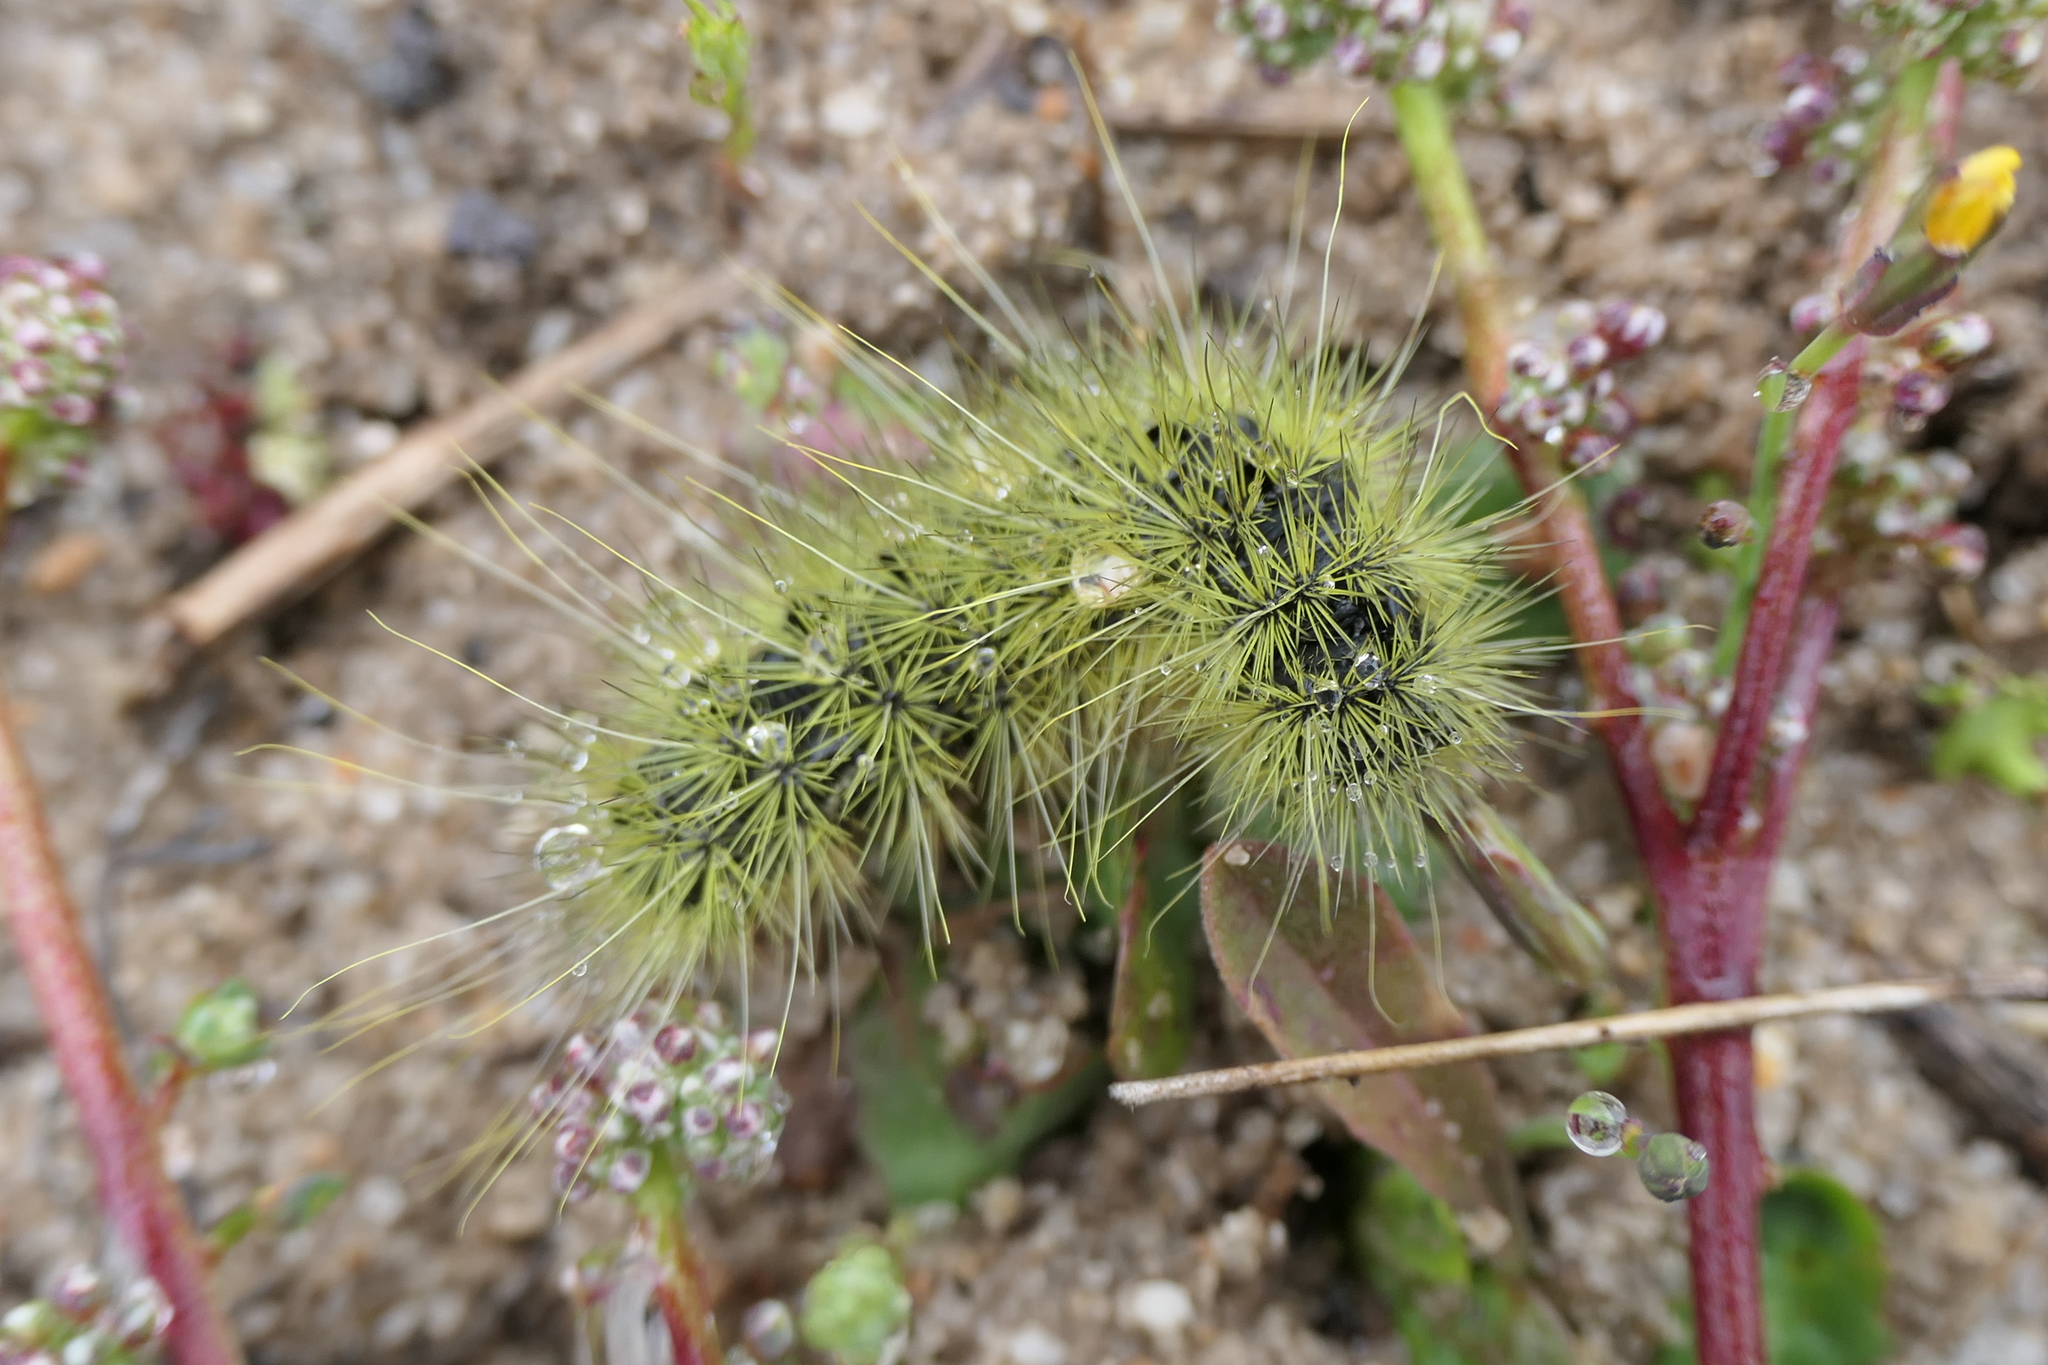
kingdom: Animalia
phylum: Arthropoda
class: Insecta
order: Lepidoptera
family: Notodontidae
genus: Thaumetopoea
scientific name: Thaumetopoea herculeana
